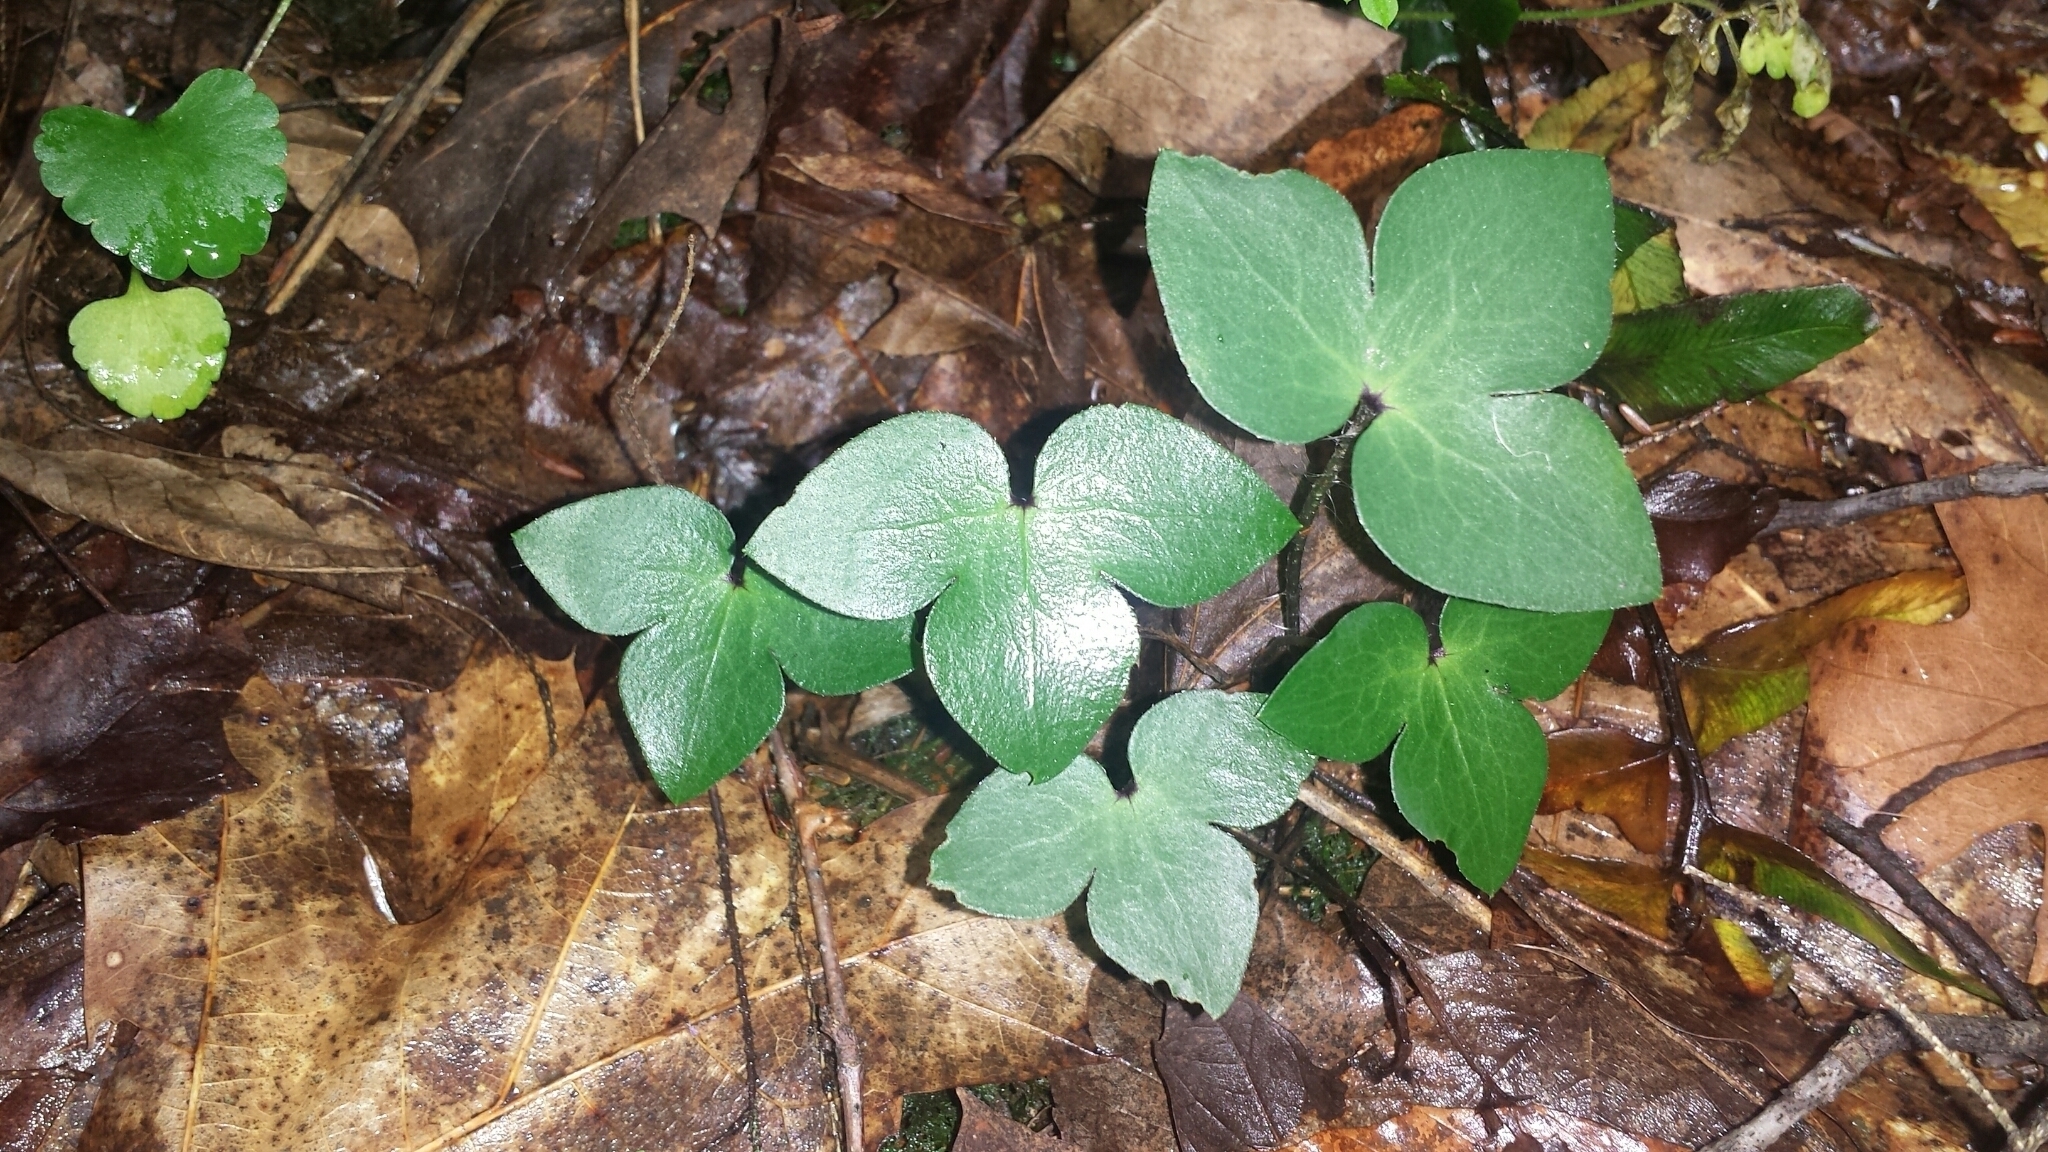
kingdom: Plantae
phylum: Tracheophyta
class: Magnoliopsida
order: Ranunculales
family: Ranunculaceae
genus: Hepatica
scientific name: Hepatica acutiloba
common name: Sharp-lobed hepatica
